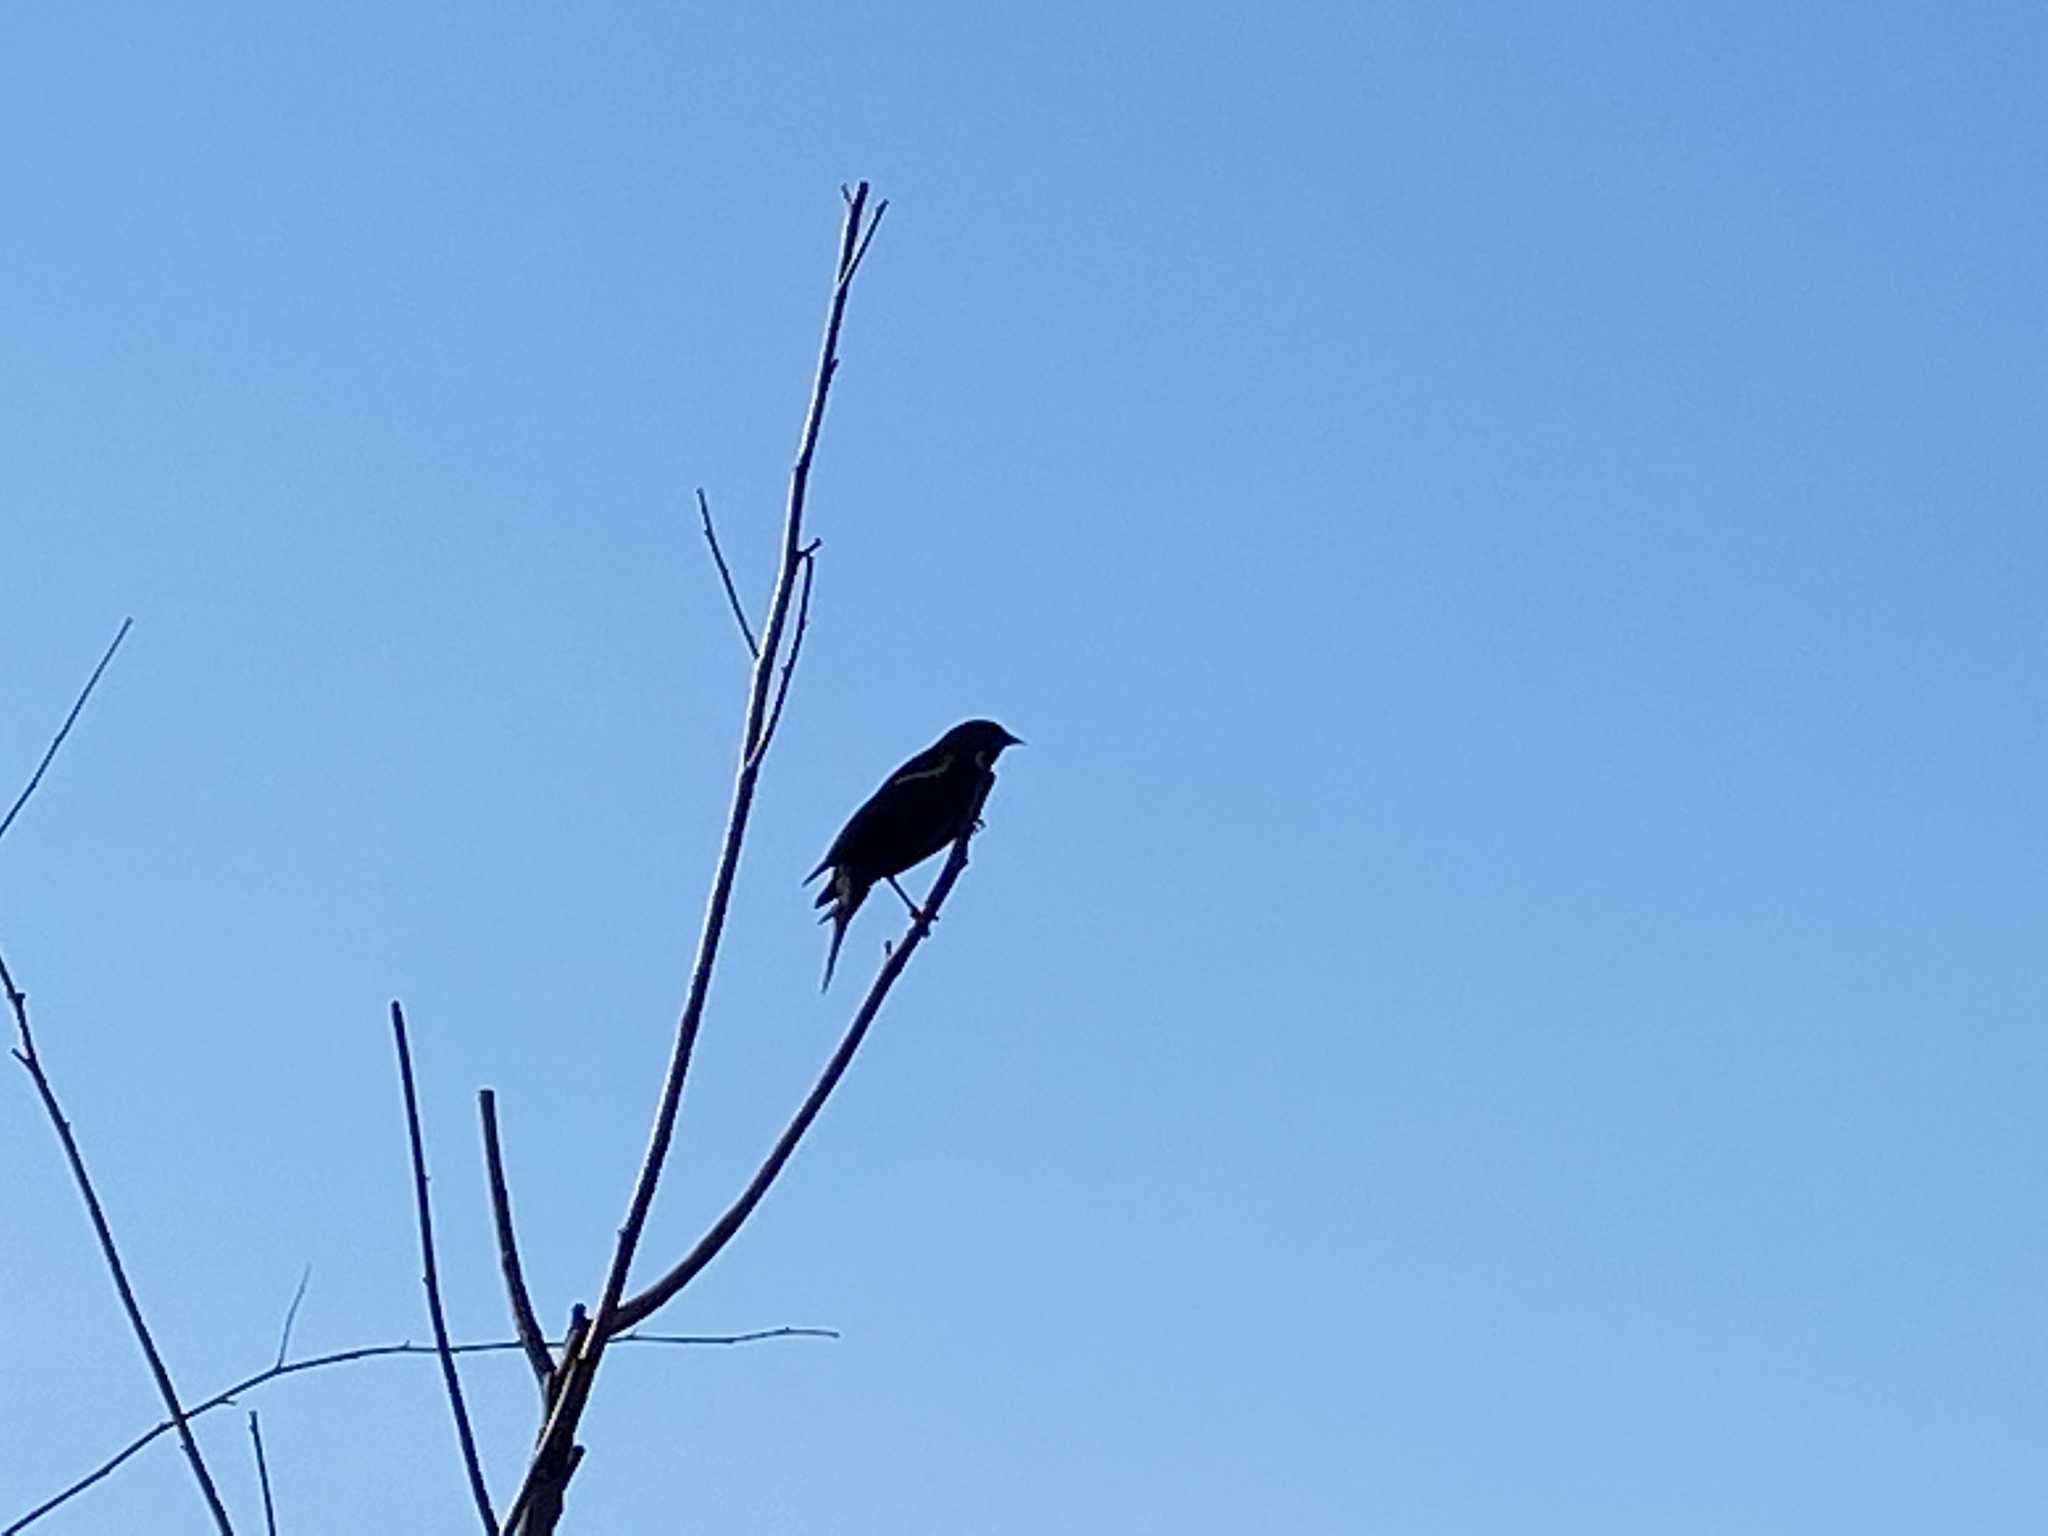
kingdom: Animalia
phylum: Chordata
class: Aves
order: Passeriformes
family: Icteridae
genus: Agelaius
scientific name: Agelaius phoeniceus
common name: Red-winged blackbird
